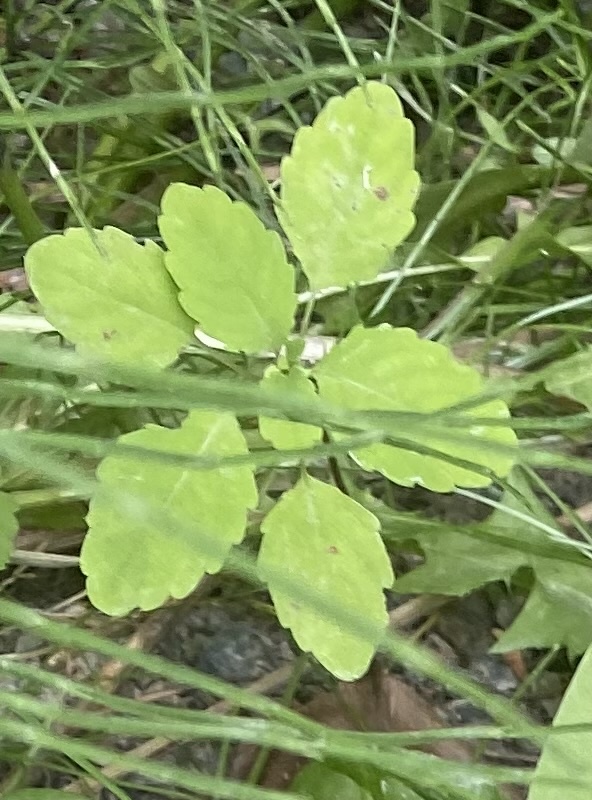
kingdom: Plantae
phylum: Tracheophyta
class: Magnoliopsida
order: Ericales
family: Balsaminaceae
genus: Impatiens
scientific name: Impatiens noli-tangere
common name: Touch-me-not balsam
